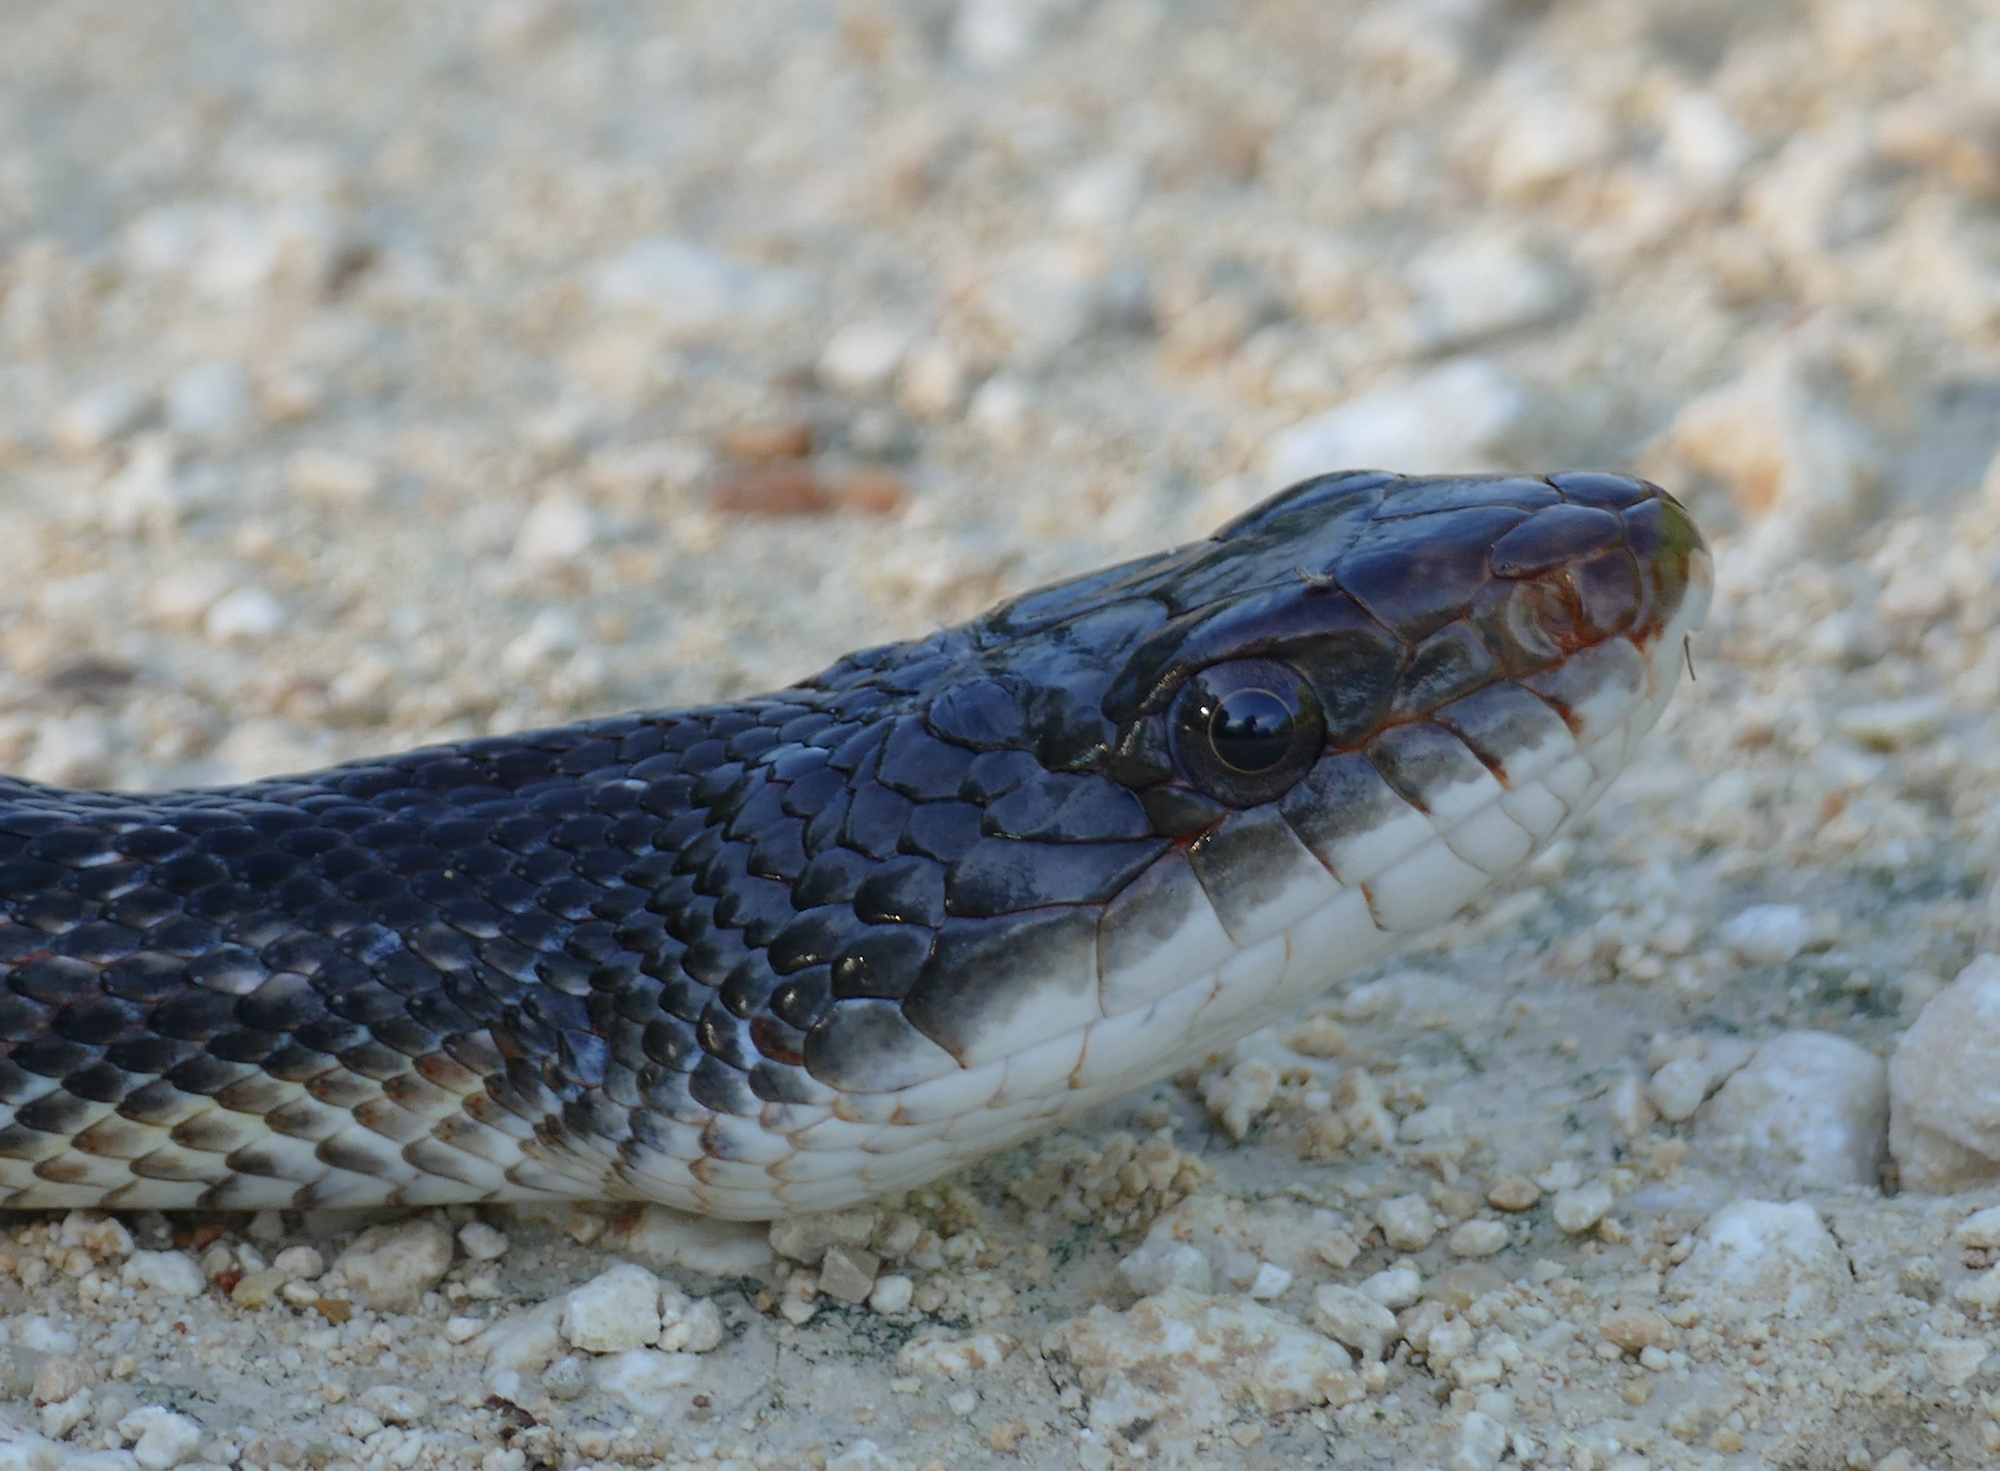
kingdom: Animalia
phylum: Chordata
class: Squamata
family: Colubridae
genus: Pantherophis
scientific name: Pantherophis obsoletus
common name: Black rat snake
